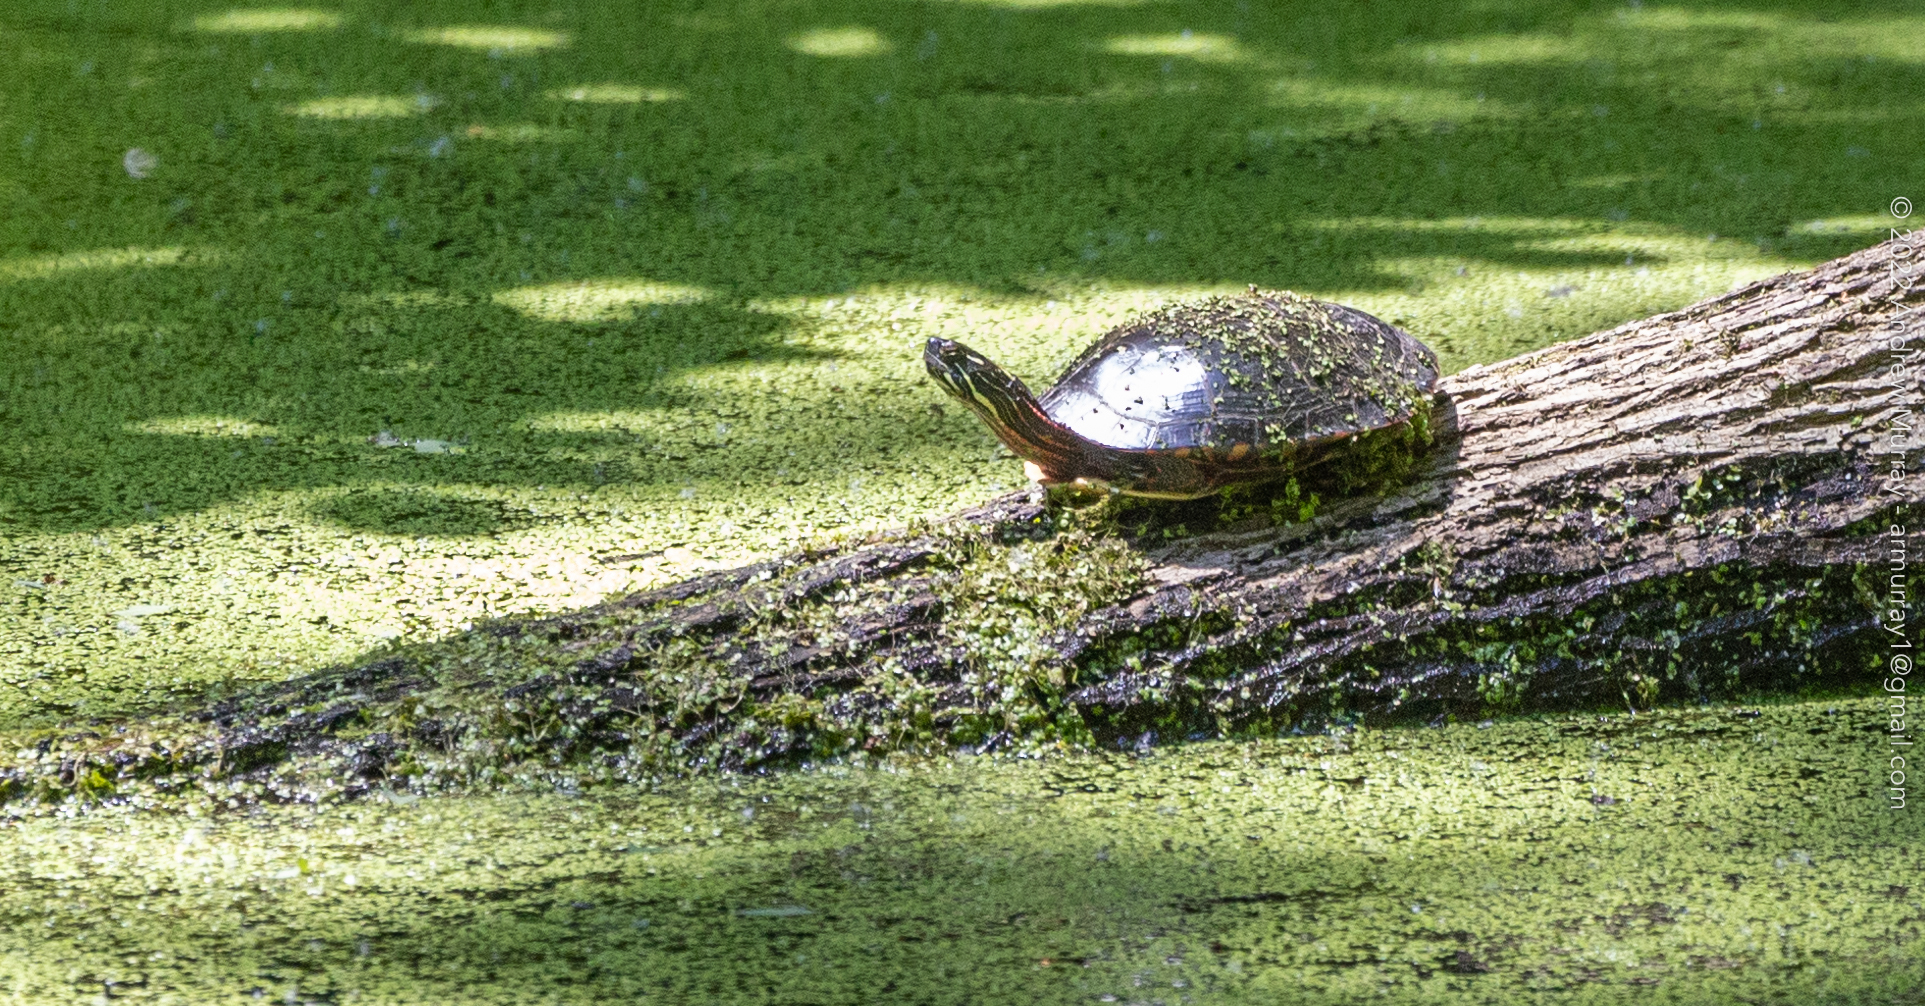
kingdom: Animalia
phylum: Chordata
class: Testudines
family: Emydidae
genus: Chrysemys
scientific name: Chrysemys picta
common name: Painted turtle
